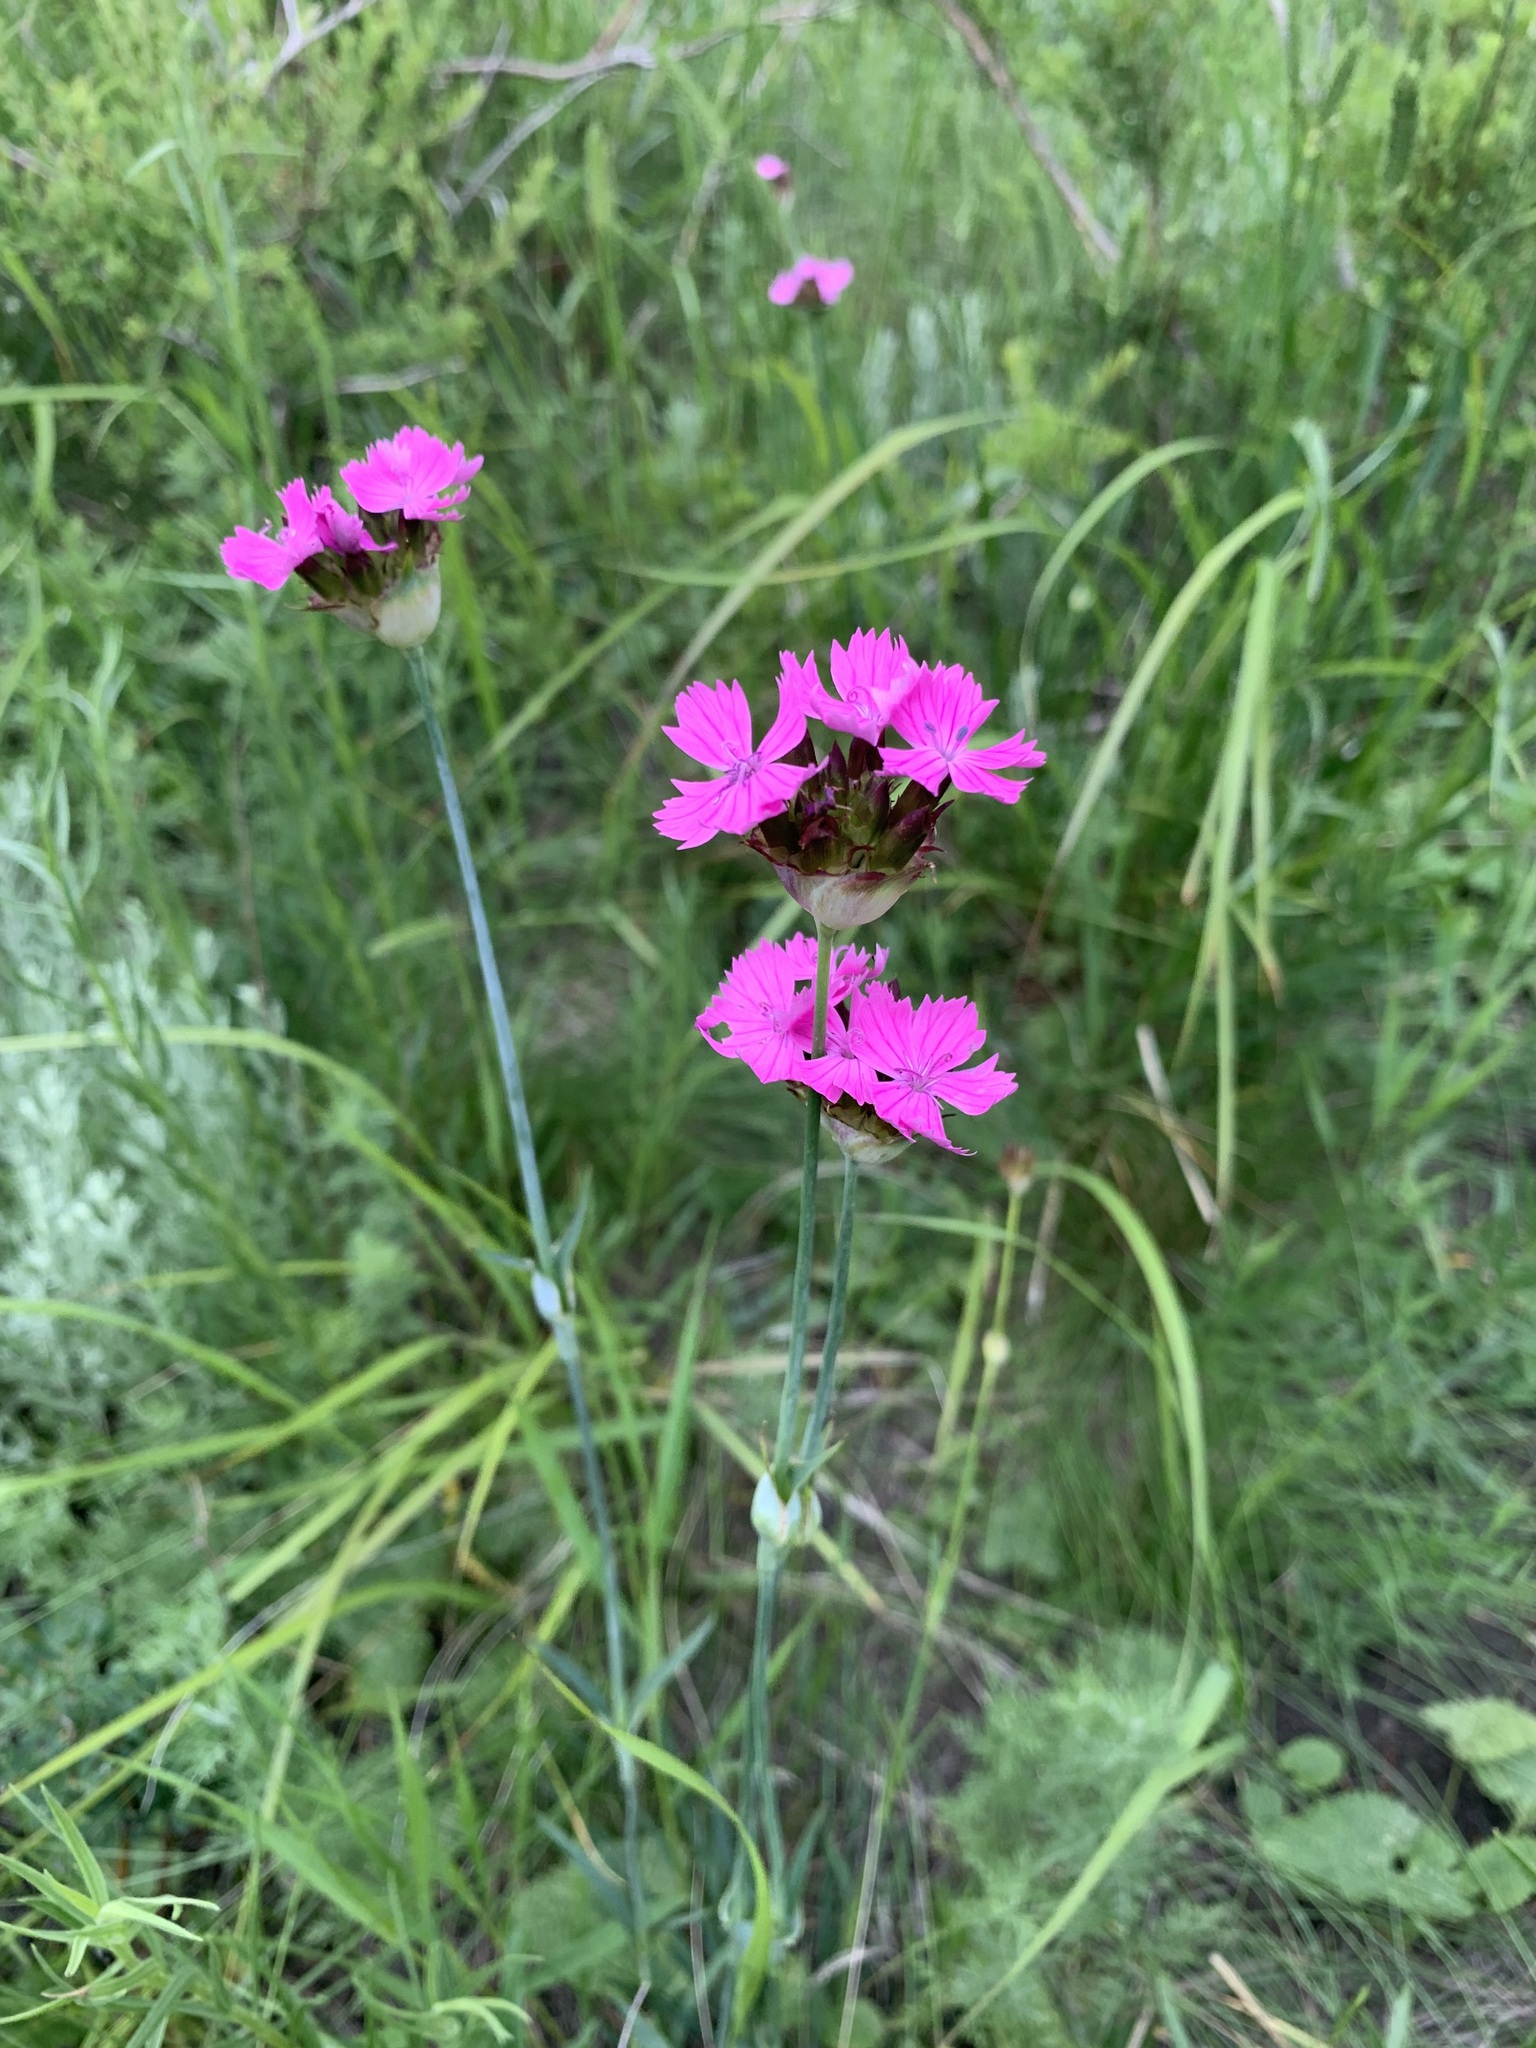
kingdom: Plantae
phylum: Tracheophyta
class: Magnoliopsida
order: Caryophyllales
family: Caryophyllaceae
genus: Dianthus
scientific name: Dianthus capitatus
